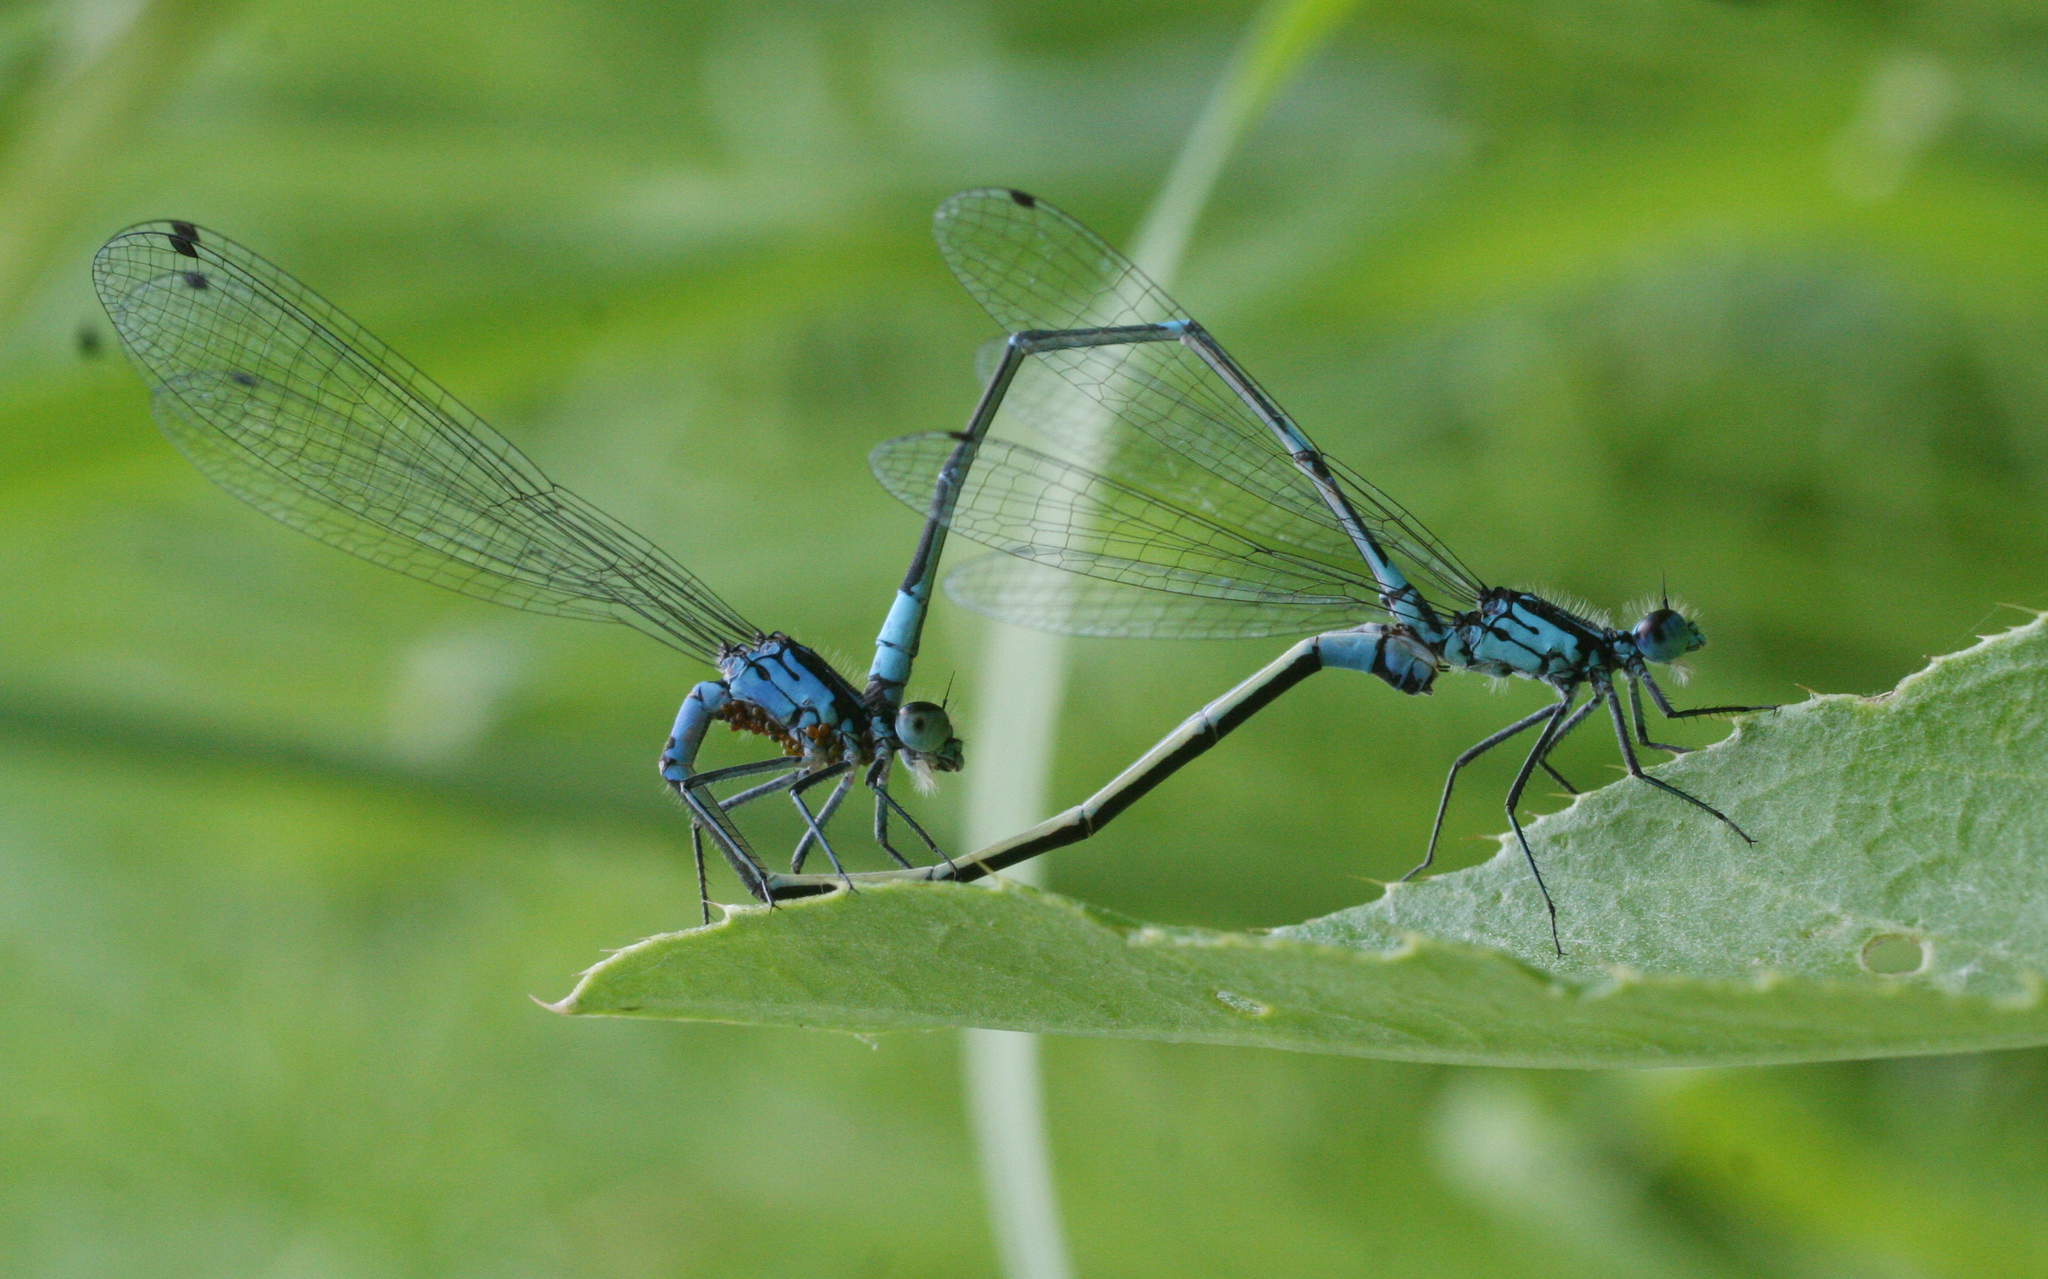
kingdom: Animalia
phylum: Arthropoda
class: Insecta
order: Odonata
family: Coenagrionidae
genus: Coenagrion
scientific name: Coenagrion pulchellum
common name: Variable bluet
